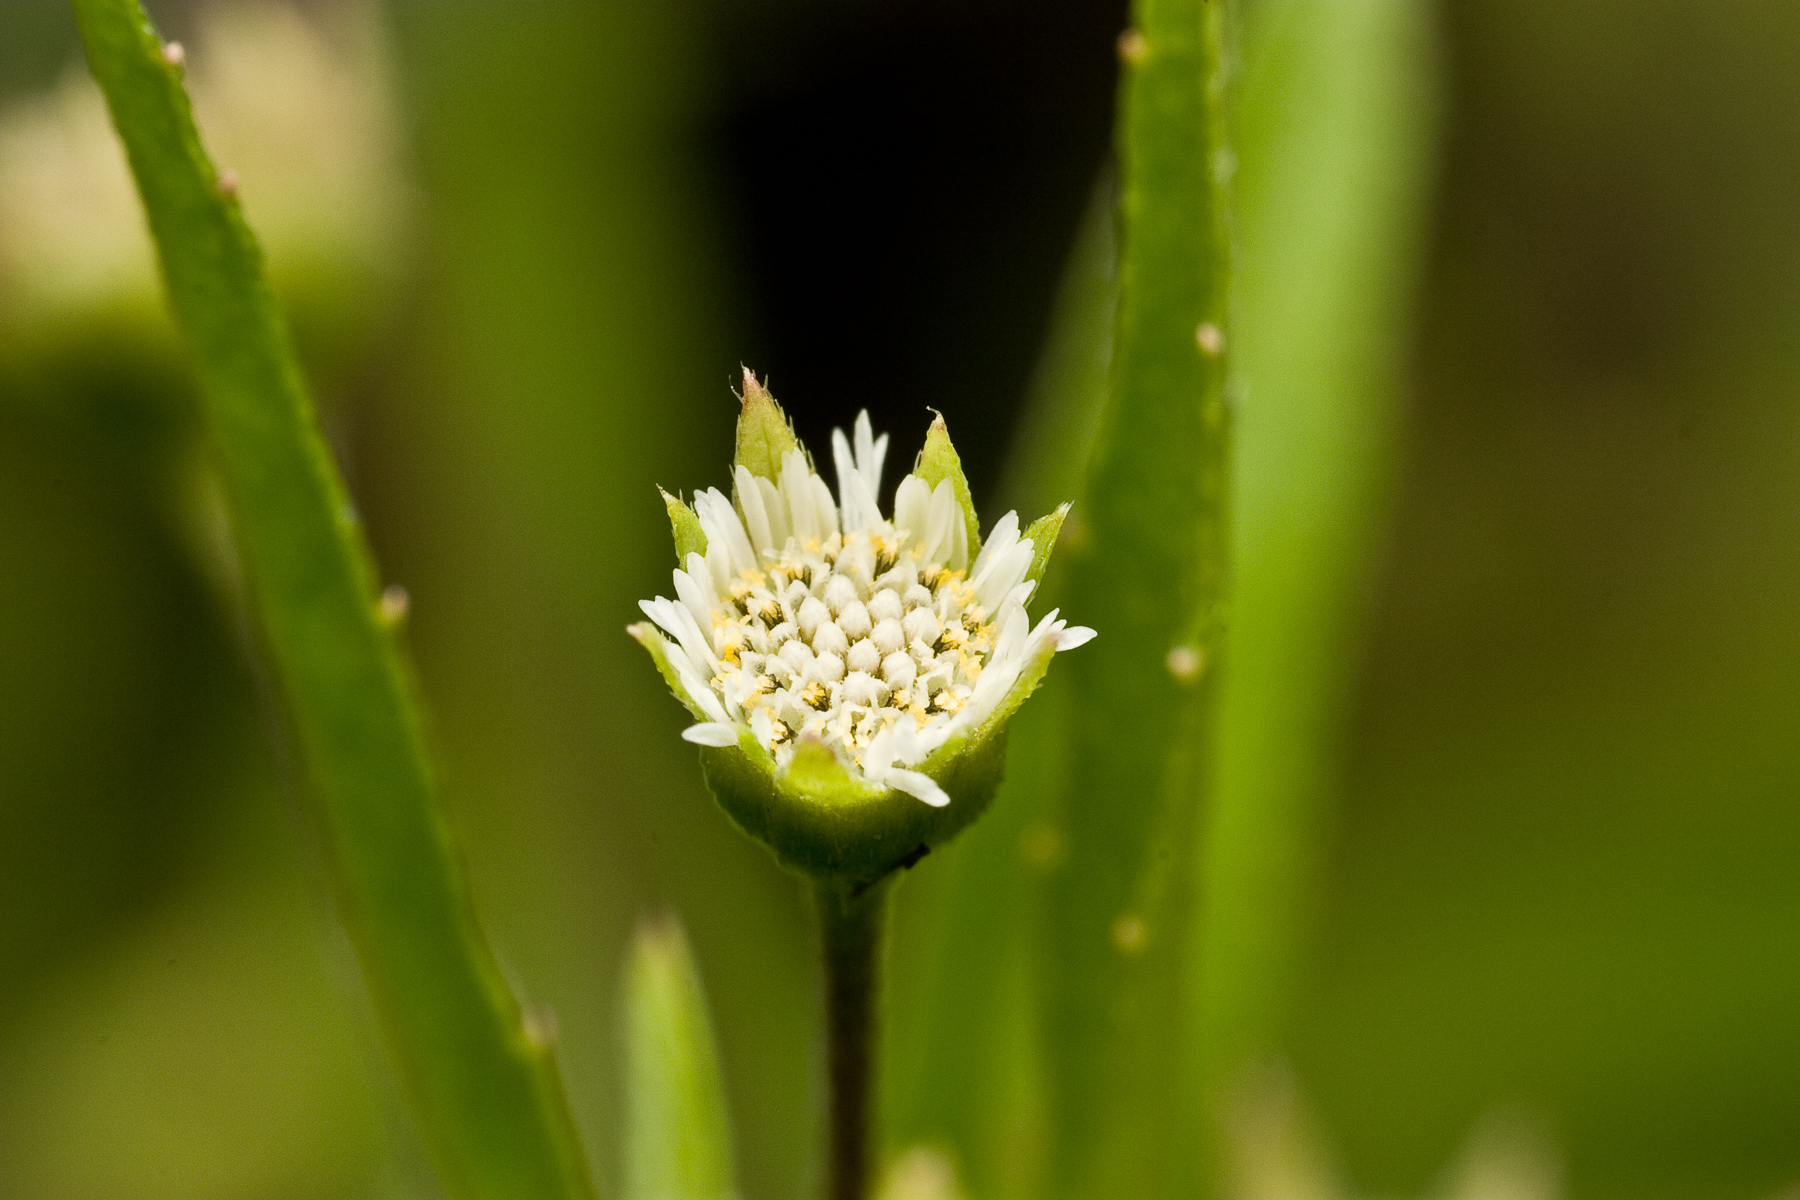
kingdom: Plantae
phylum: Tracheophyta
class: Magnoliopsida
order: Asterales
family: Asteraceae
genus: Eclipta
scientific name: Eclipta prostrata
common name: False daisy
